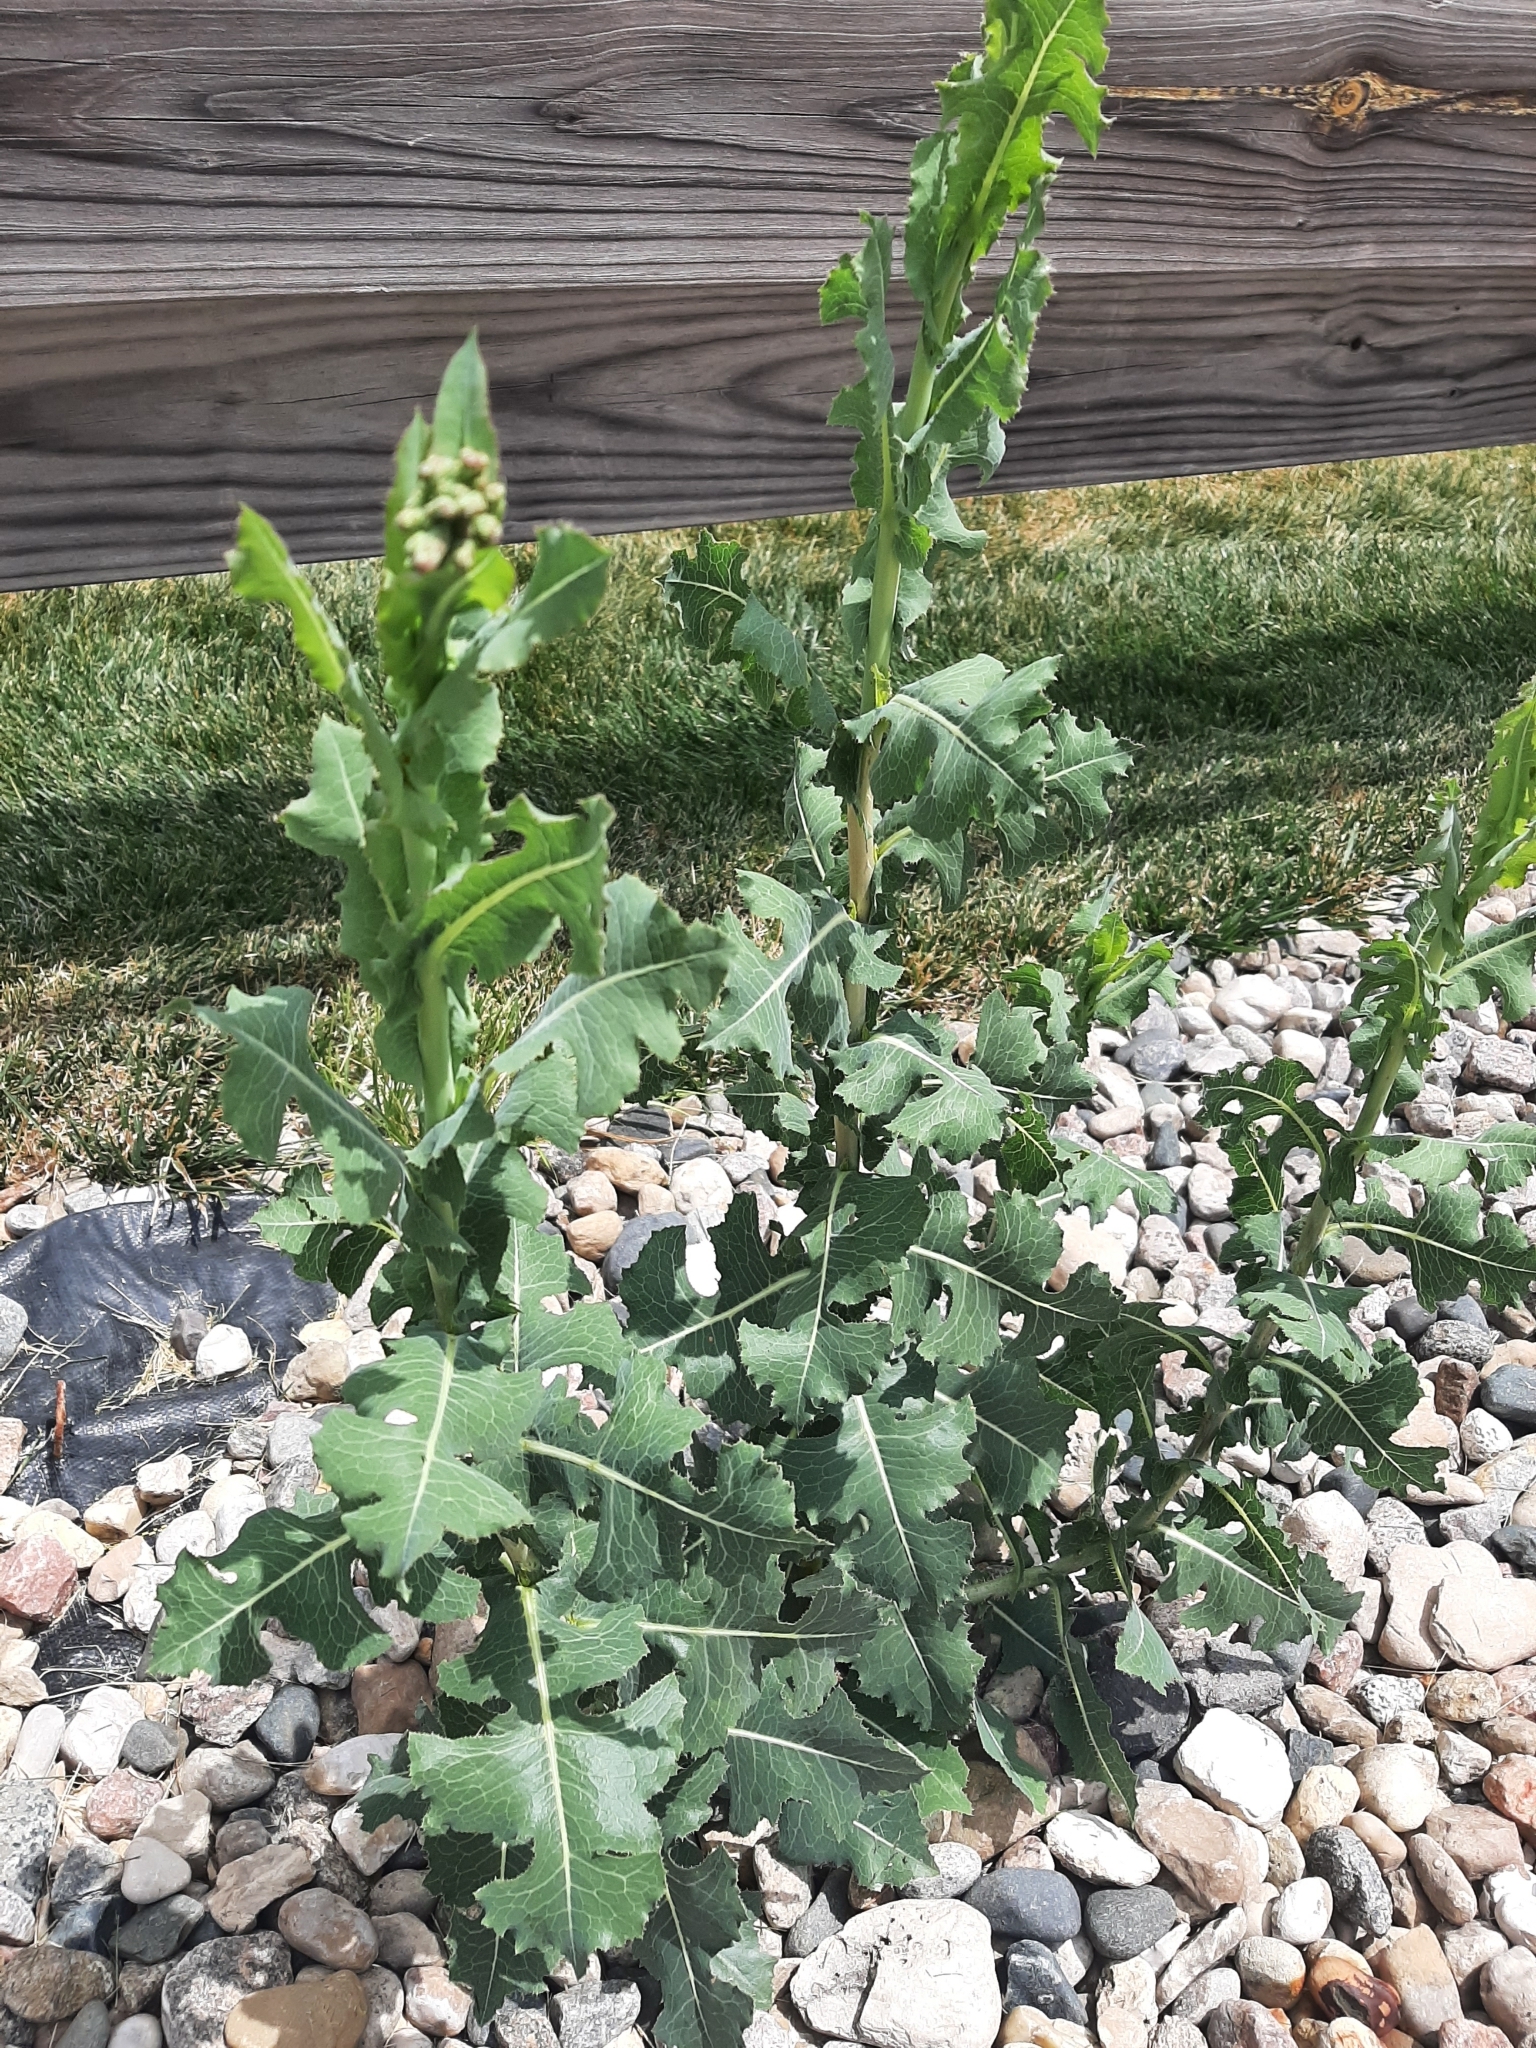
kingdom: Plantae
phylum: Tracheophyta
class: Magnoliopsida
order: Asterales
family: Asteraceae
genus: Lactuca
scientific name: Lactuca serriola
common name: Prickly lettuce
